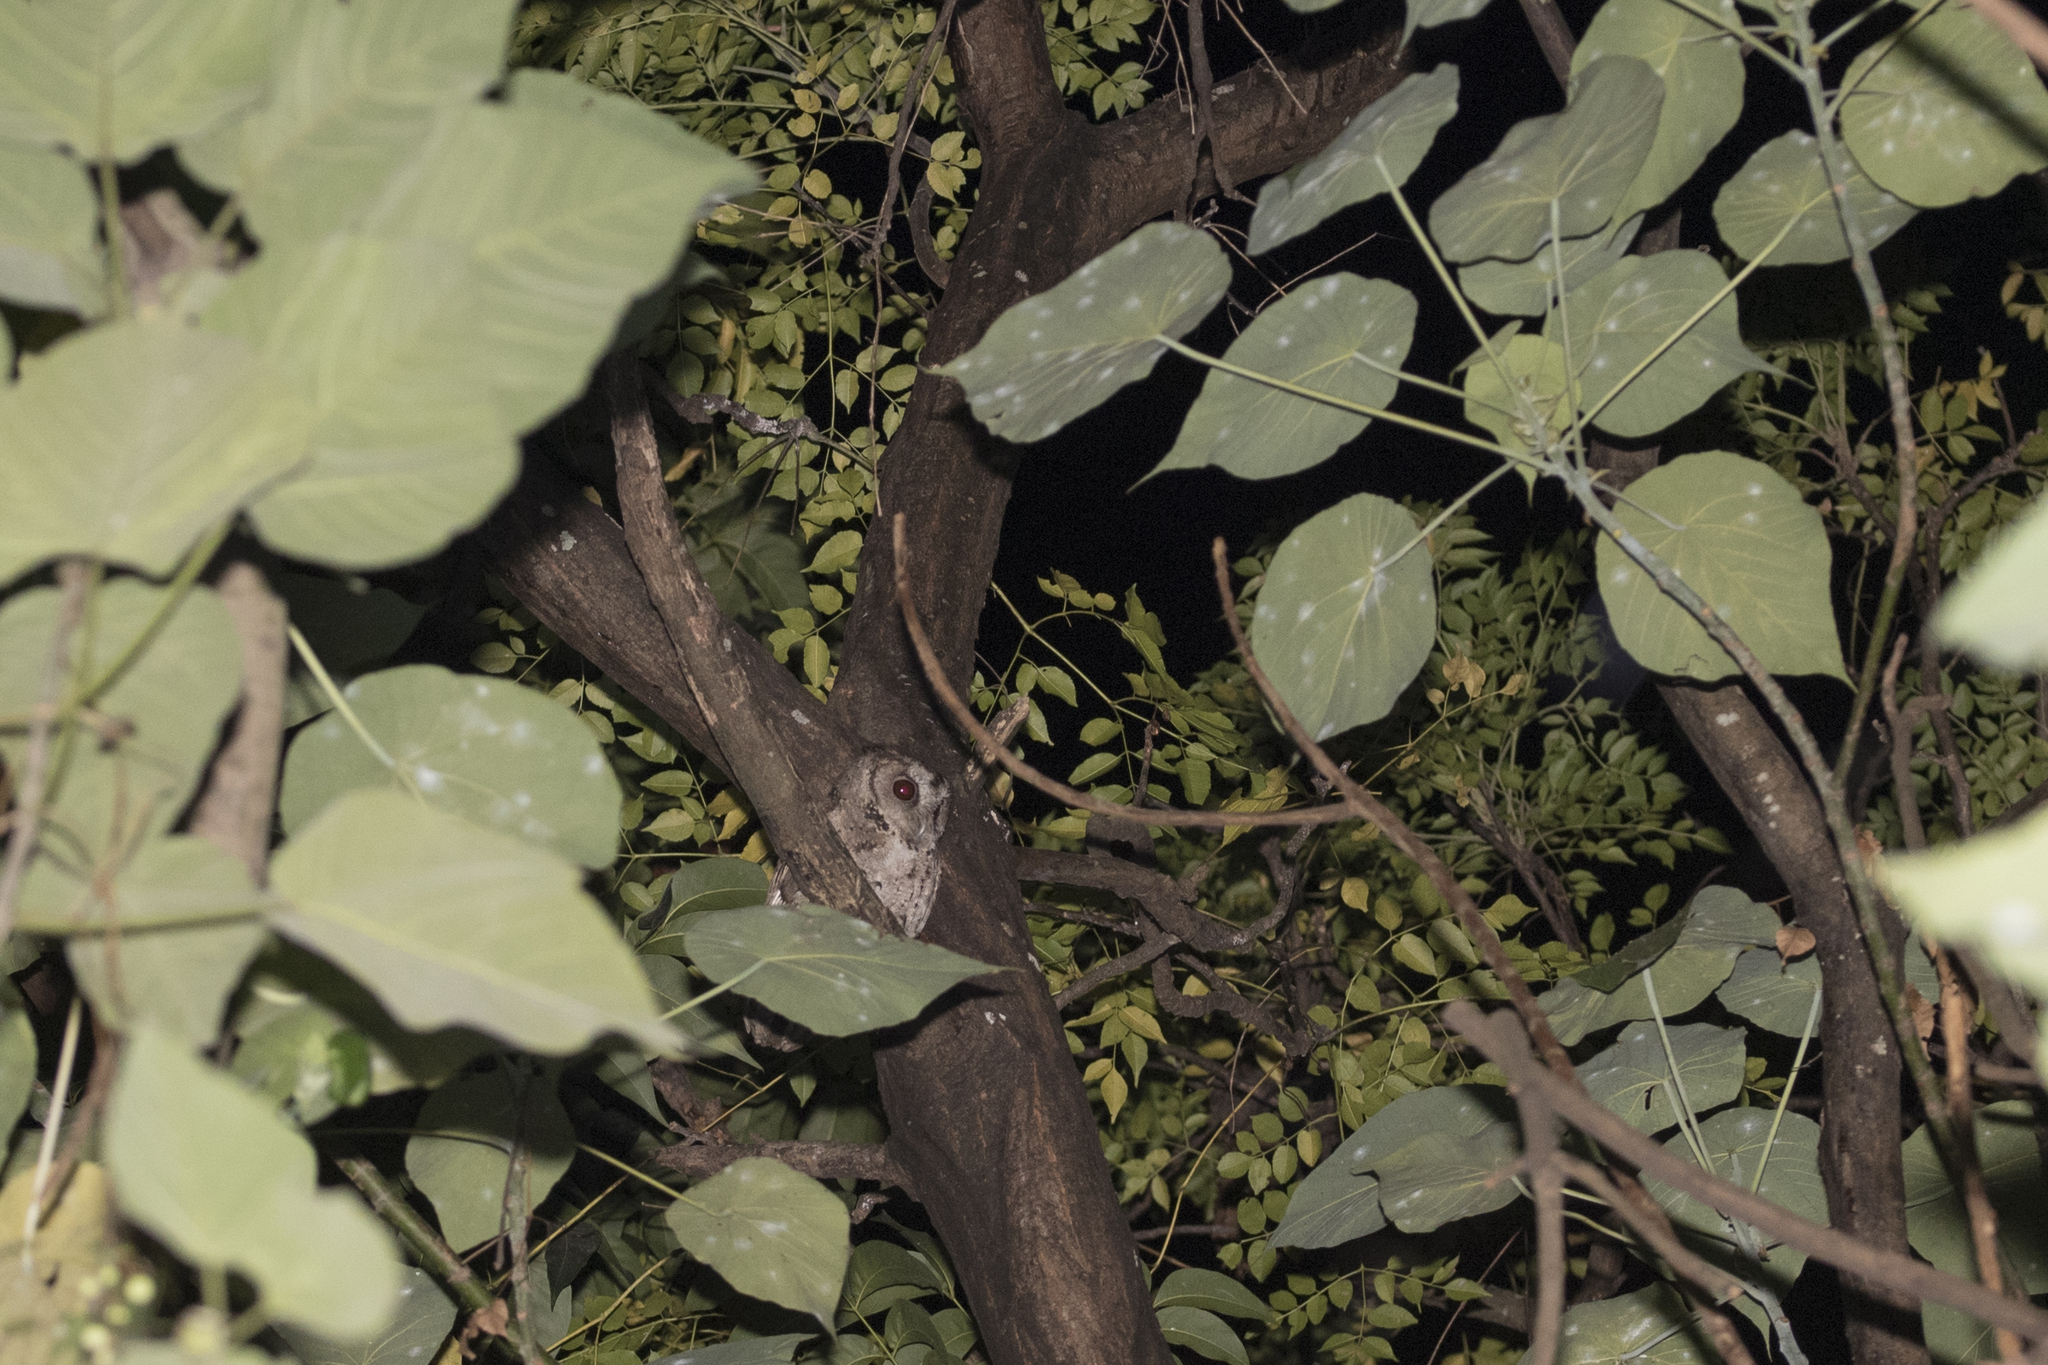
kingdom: Animalia
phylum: Chordata
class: Aves
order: Strigiformes
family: Strigidae
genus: Otus
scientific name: Otus lettia
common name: Collared scops owl
